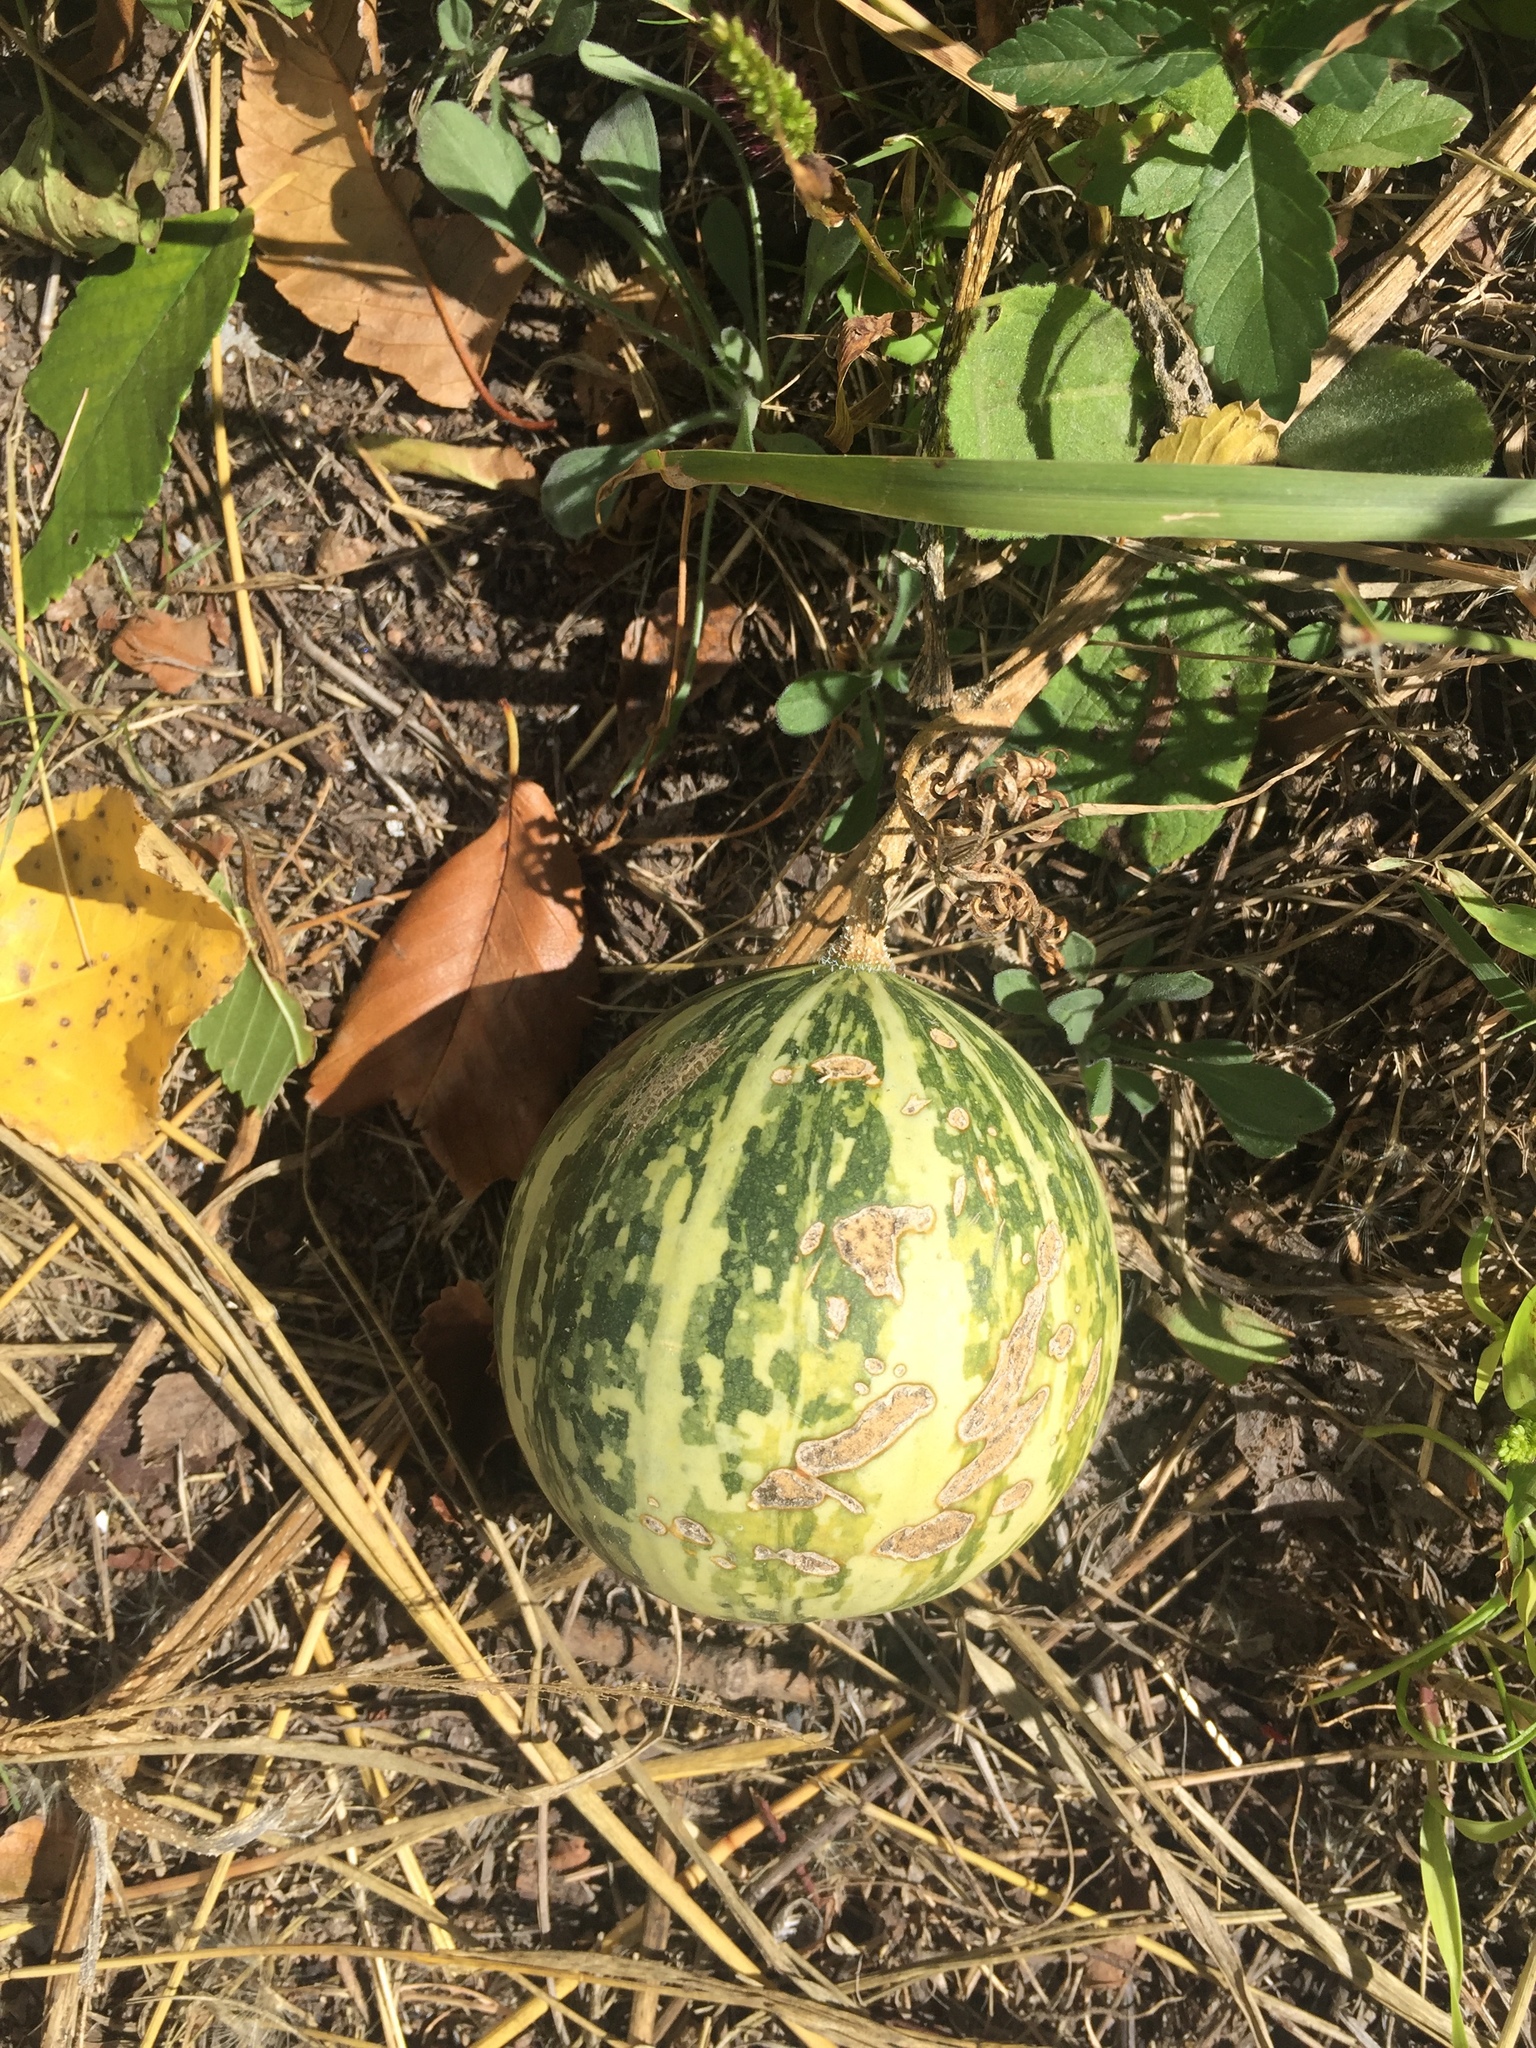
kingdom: Plantae
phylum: Tracheophyta
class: Magnoliopsida
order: Cucurbitales
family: Cucurbitaceae
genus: Cucurbita
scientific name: Cucurbita foetidissima
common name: Buffalo gourd
